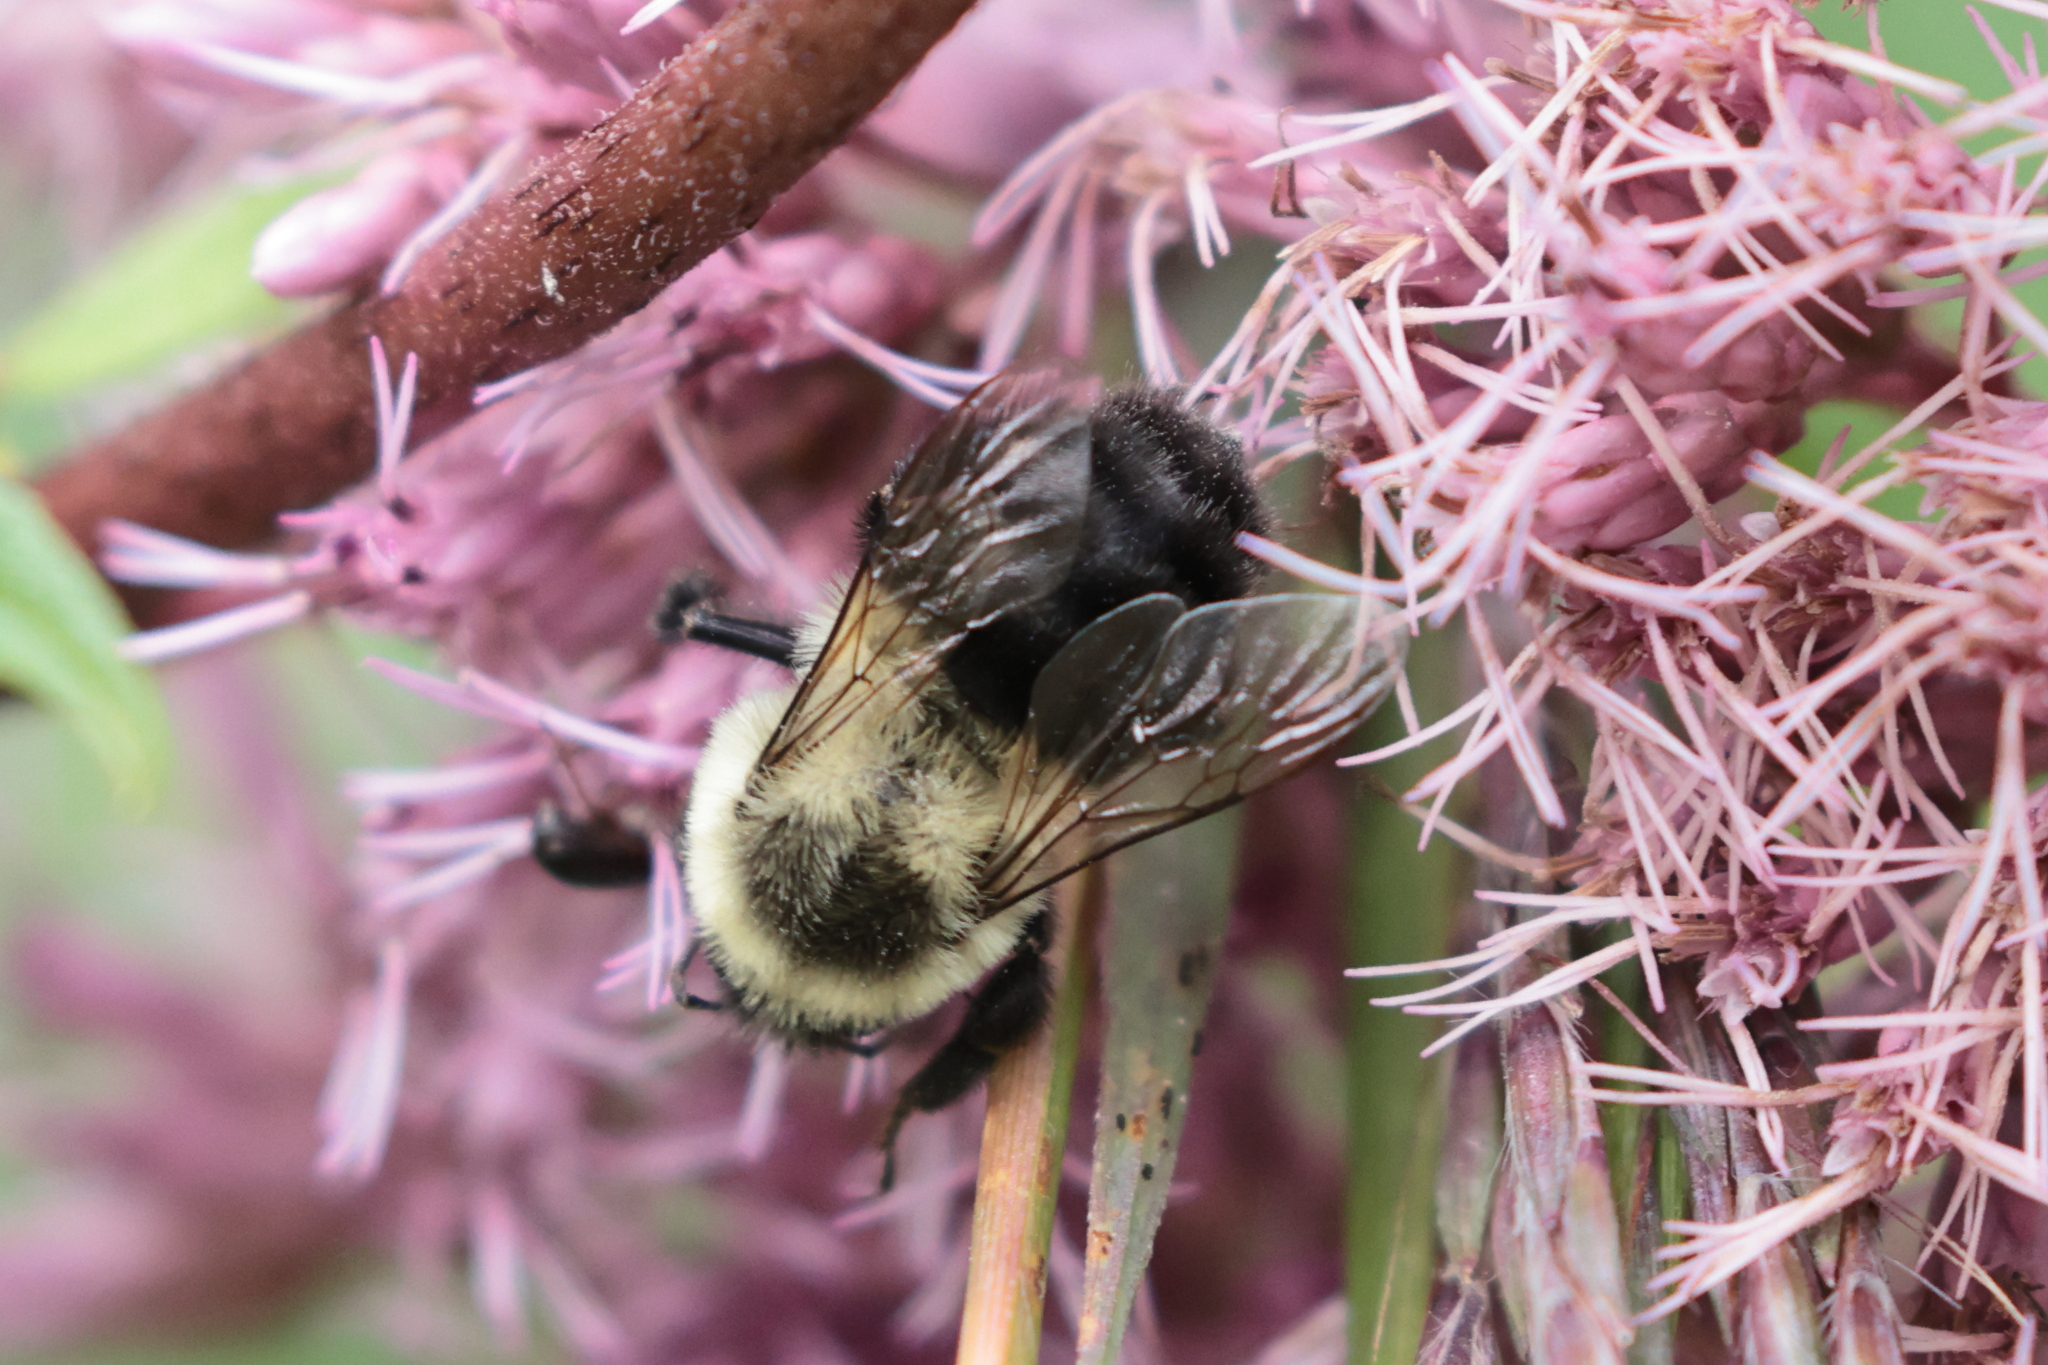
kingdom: Animalia
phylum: Arthropoda
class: Insecta
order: Hymenoptera
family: Apidae
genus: Bombus
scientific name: Bombus impatiens
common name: Common eastern bumble bee
